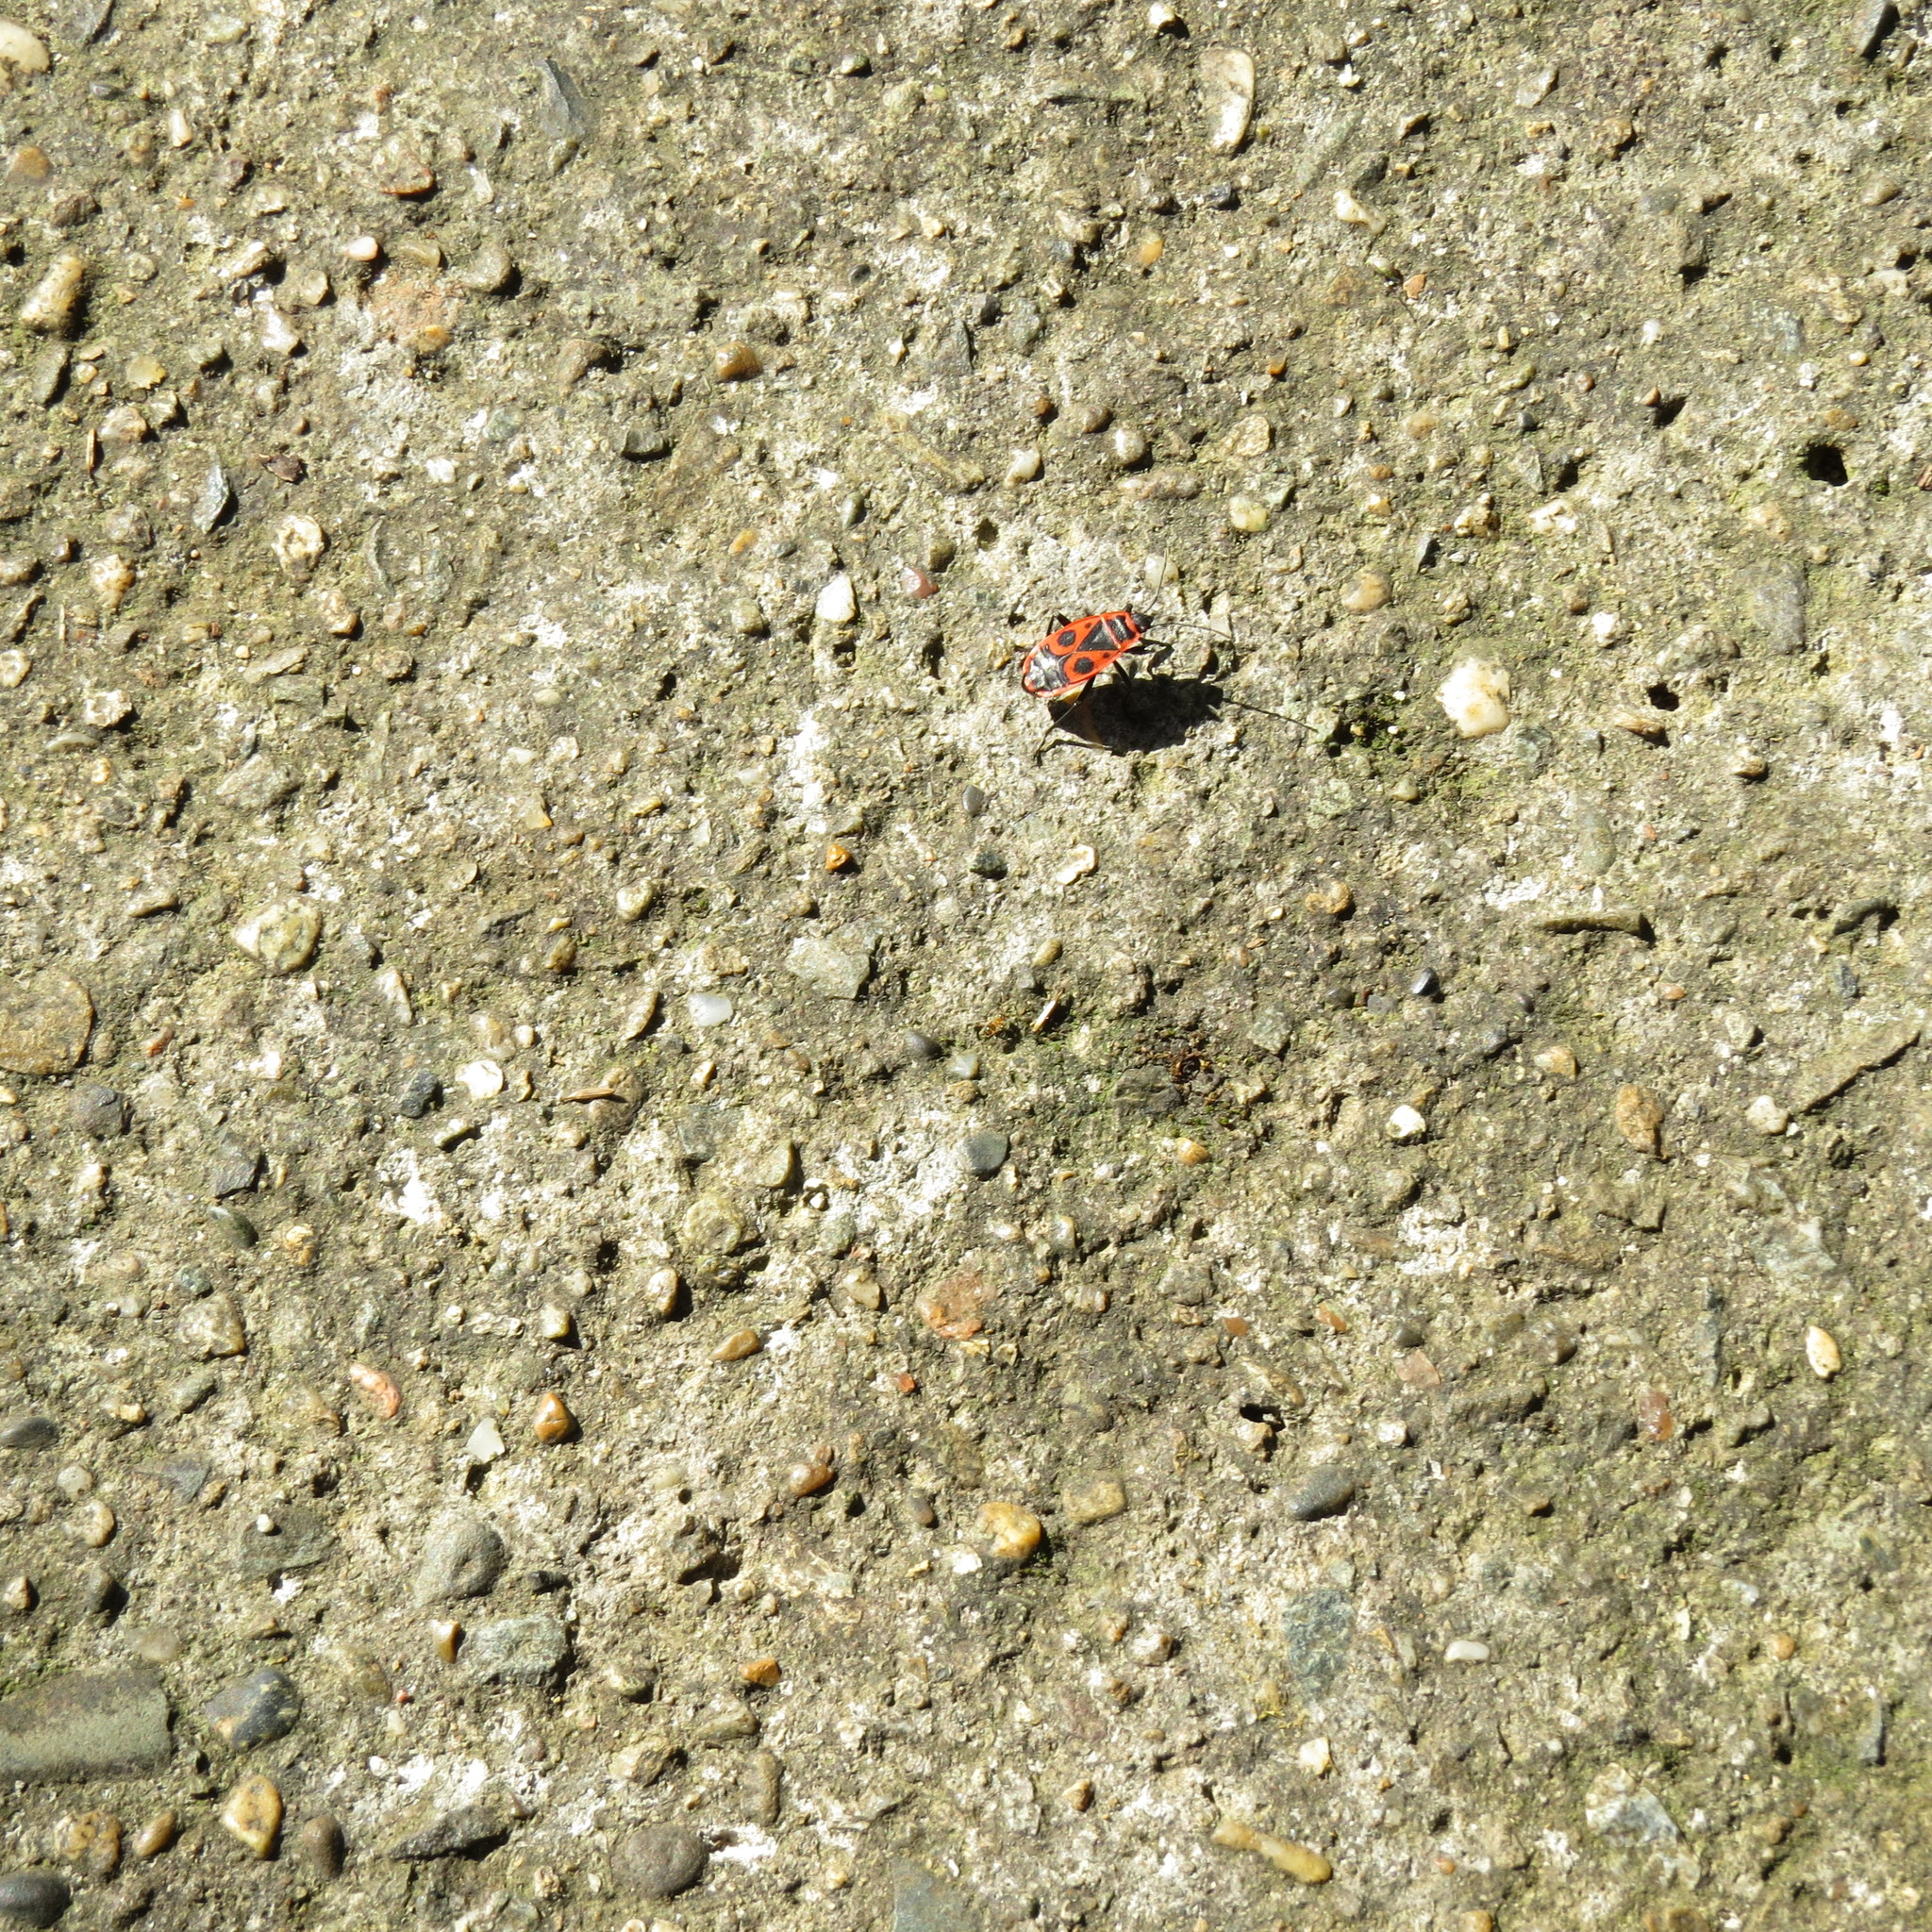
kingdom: Animalia
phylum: Arthropoda
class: Insecta
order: Hemiptera
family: Pyrrhocoridae
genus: Pyrrhocoris
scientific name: Pyrrhocoris apterus
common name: Firebug
